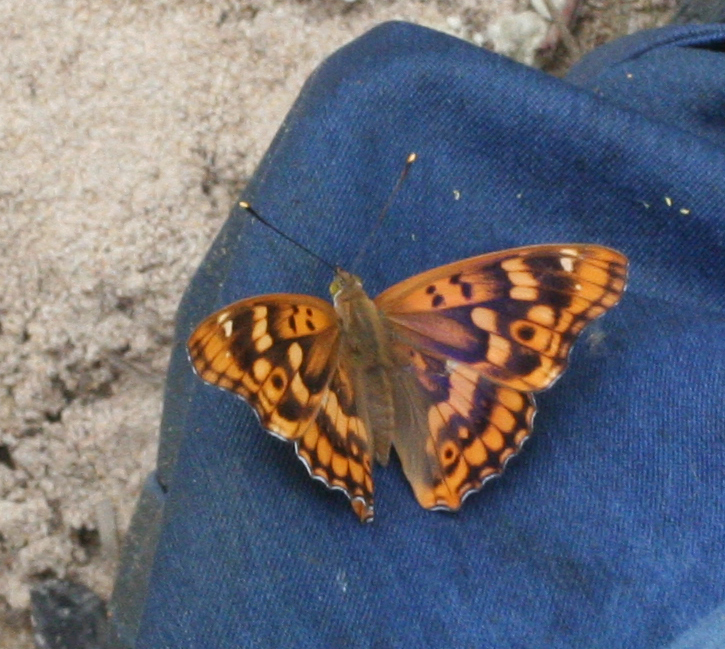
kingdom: Animalia
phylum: Arthropoda
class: Insecta
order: Lepidoptera
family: Nymphalidae
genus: Apatura
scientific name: Apatura ilia
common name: Lesser purple emperor
